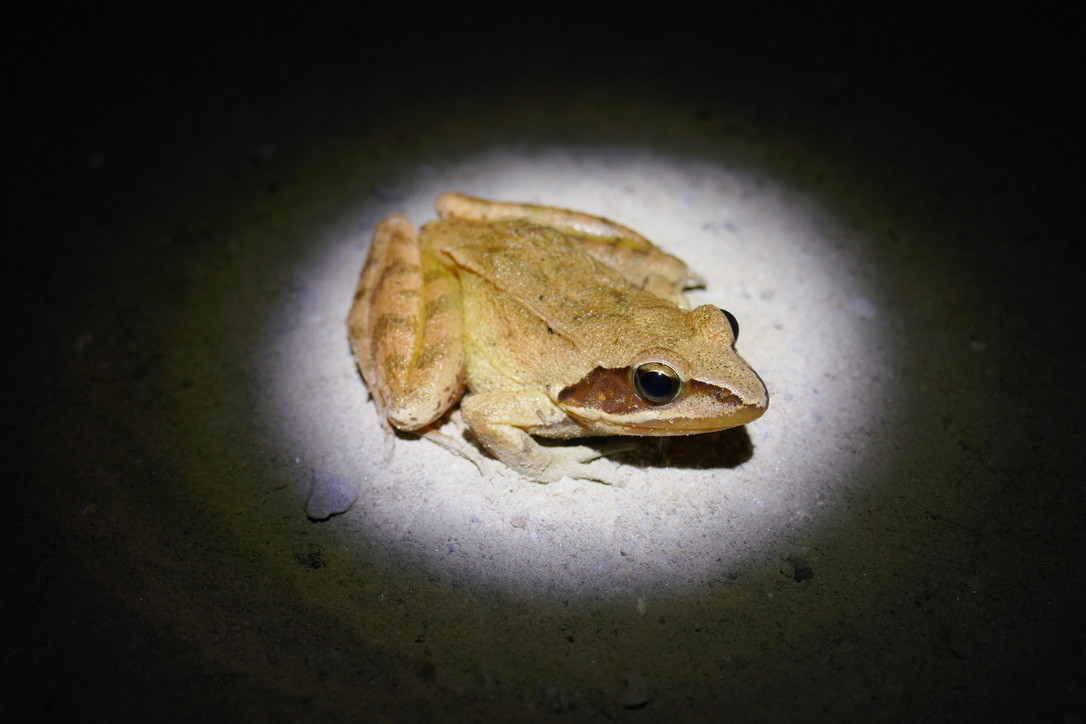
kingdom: Animalia
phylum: Chordata
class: Amphibia
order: Anura
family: Ranidae
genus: Rana
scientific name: Rana dalmatina
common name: Agile frog
